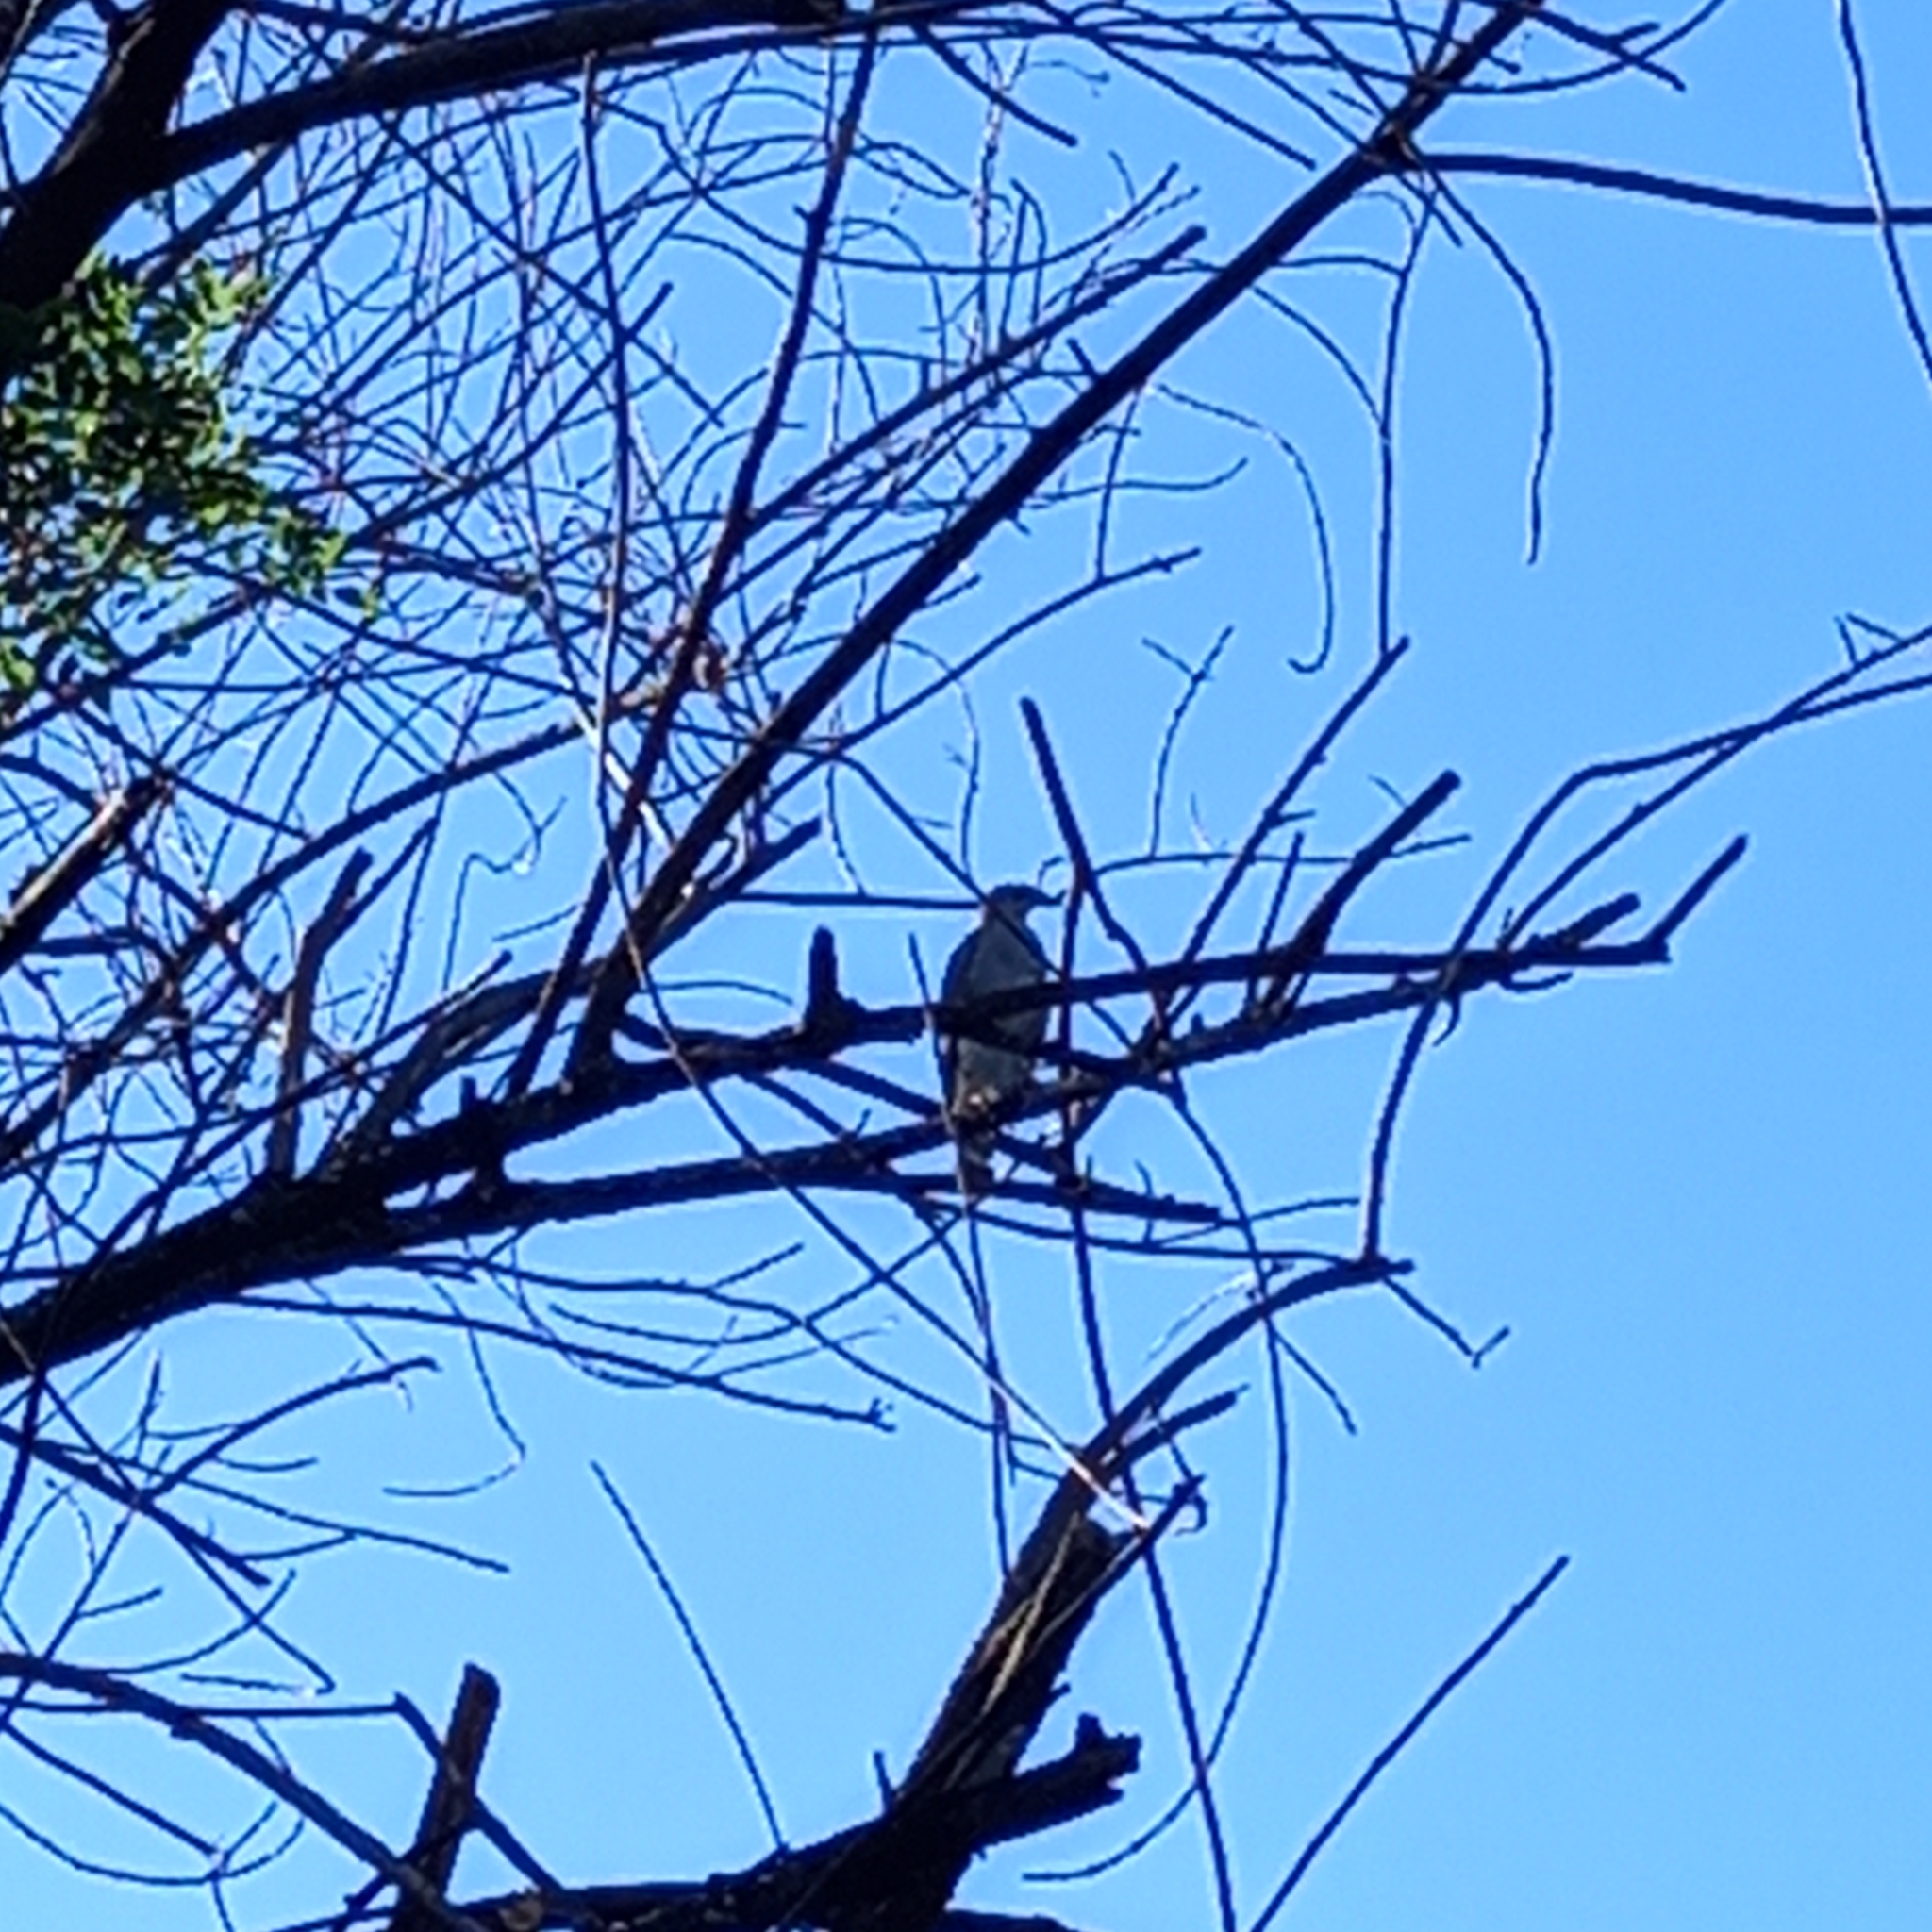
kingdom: Animalia
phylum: Chordata
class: Aves
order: Accipitriformes
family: Accipitridae
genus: Buteo
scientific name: Buteo nitidus
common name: Grey-lined hawk
